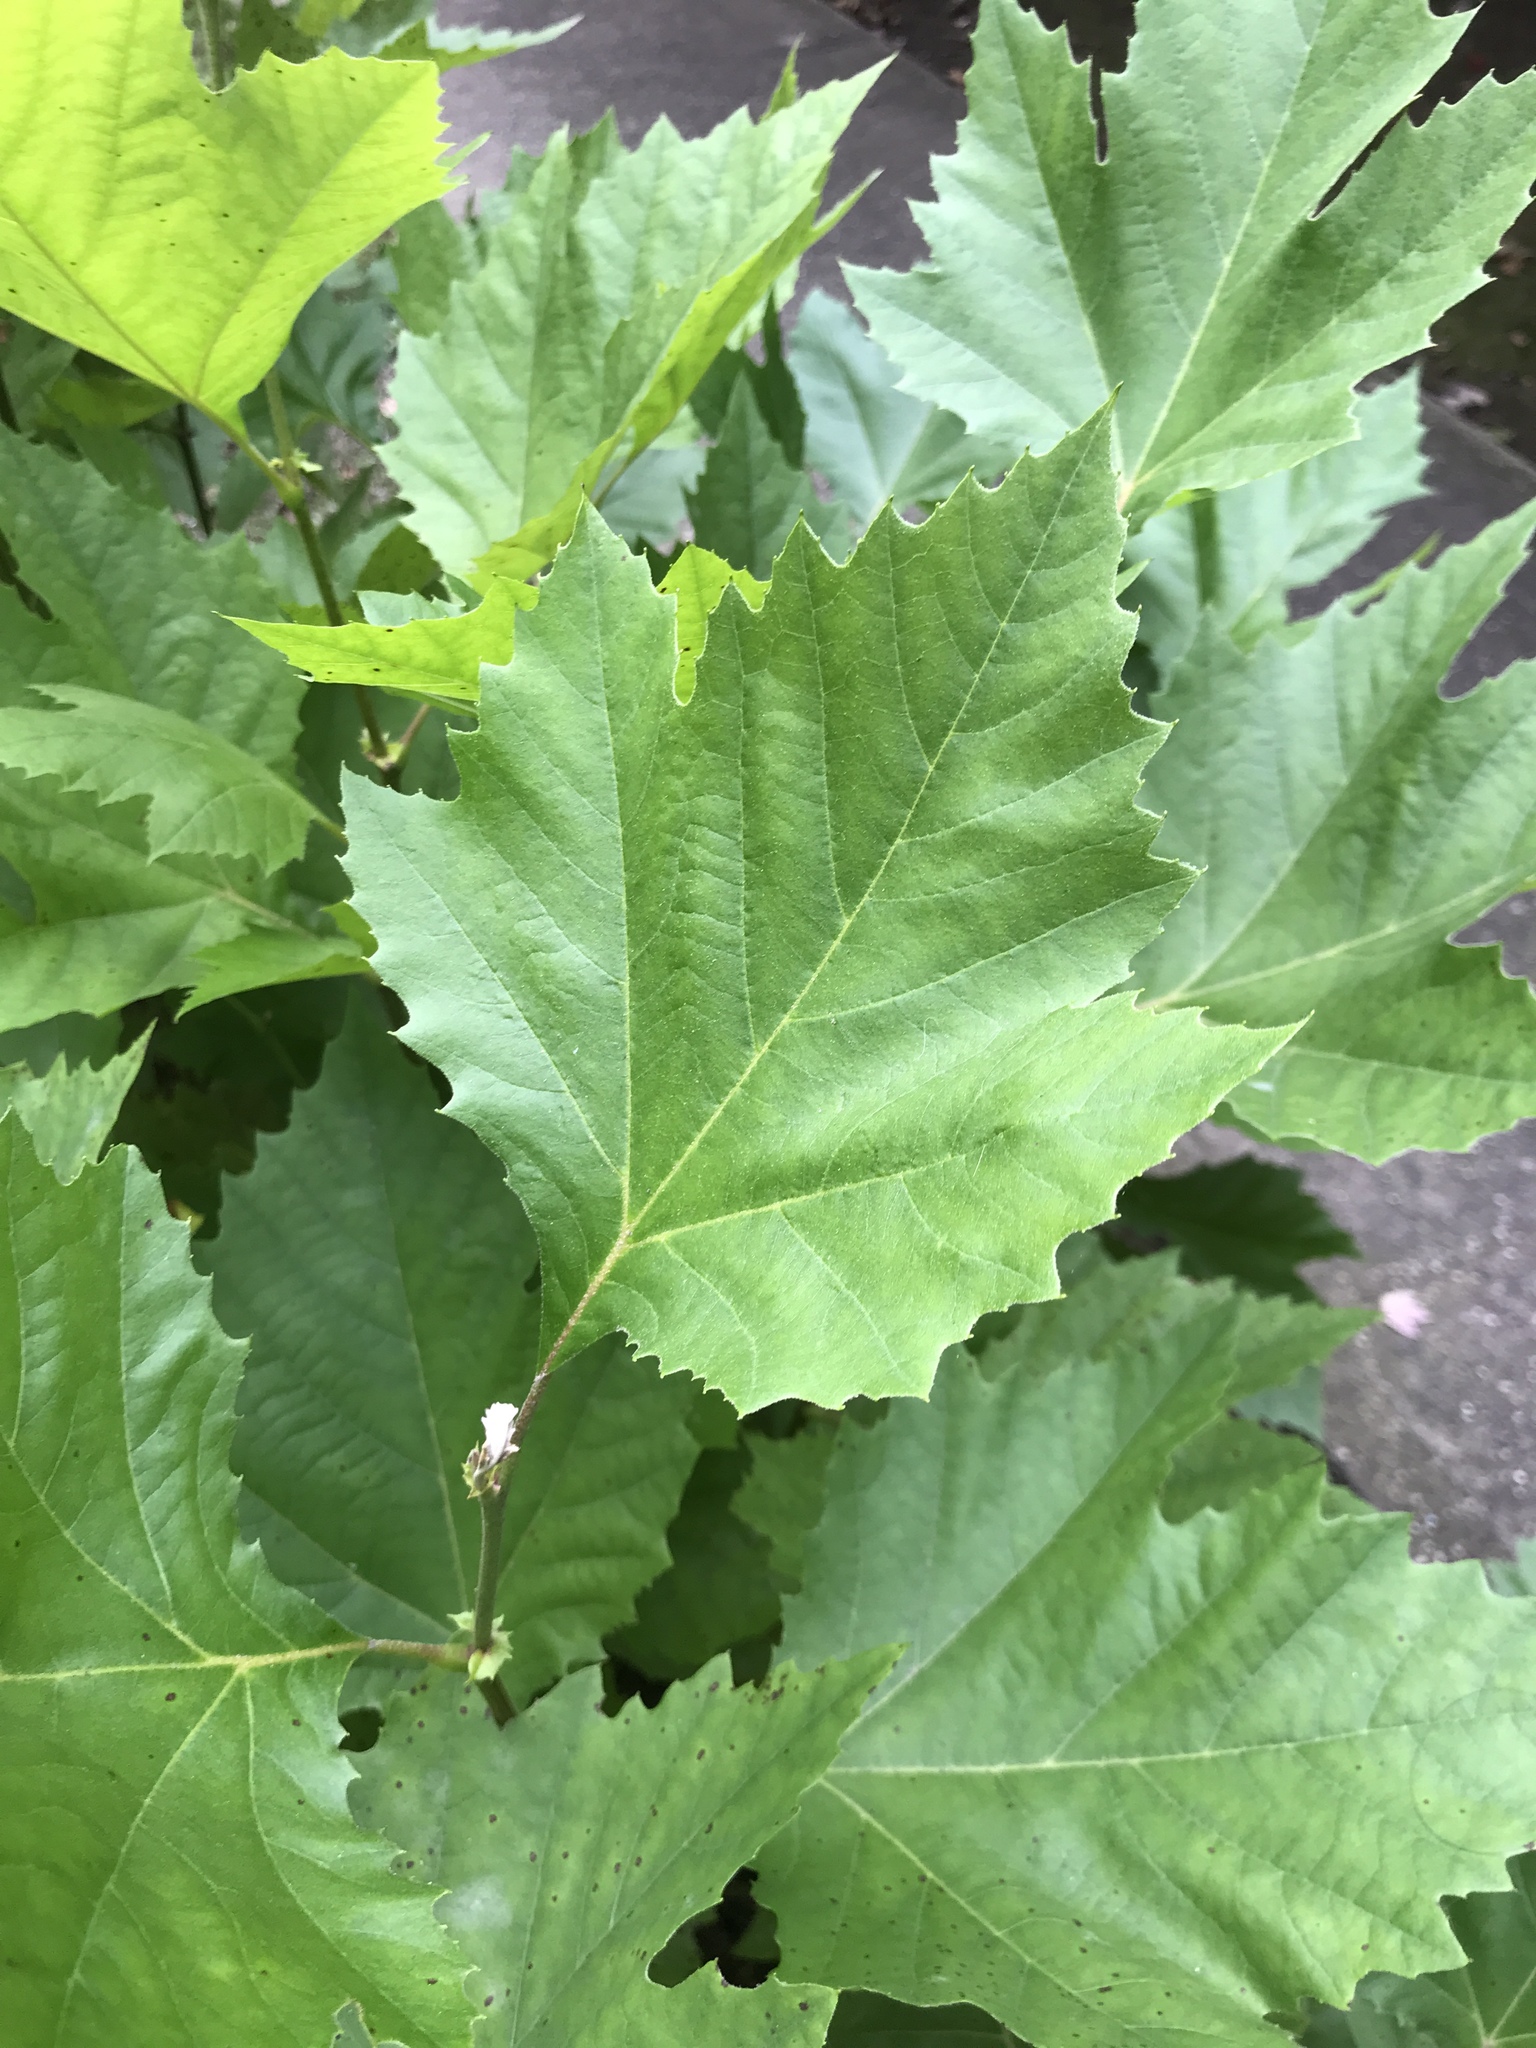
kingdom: Plantae
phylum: Tracheophyta
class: Magnoliopsida
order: Proteales
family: Platanaceae
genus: Platanus
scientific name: Platanus occidentalis
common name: American sycamore
